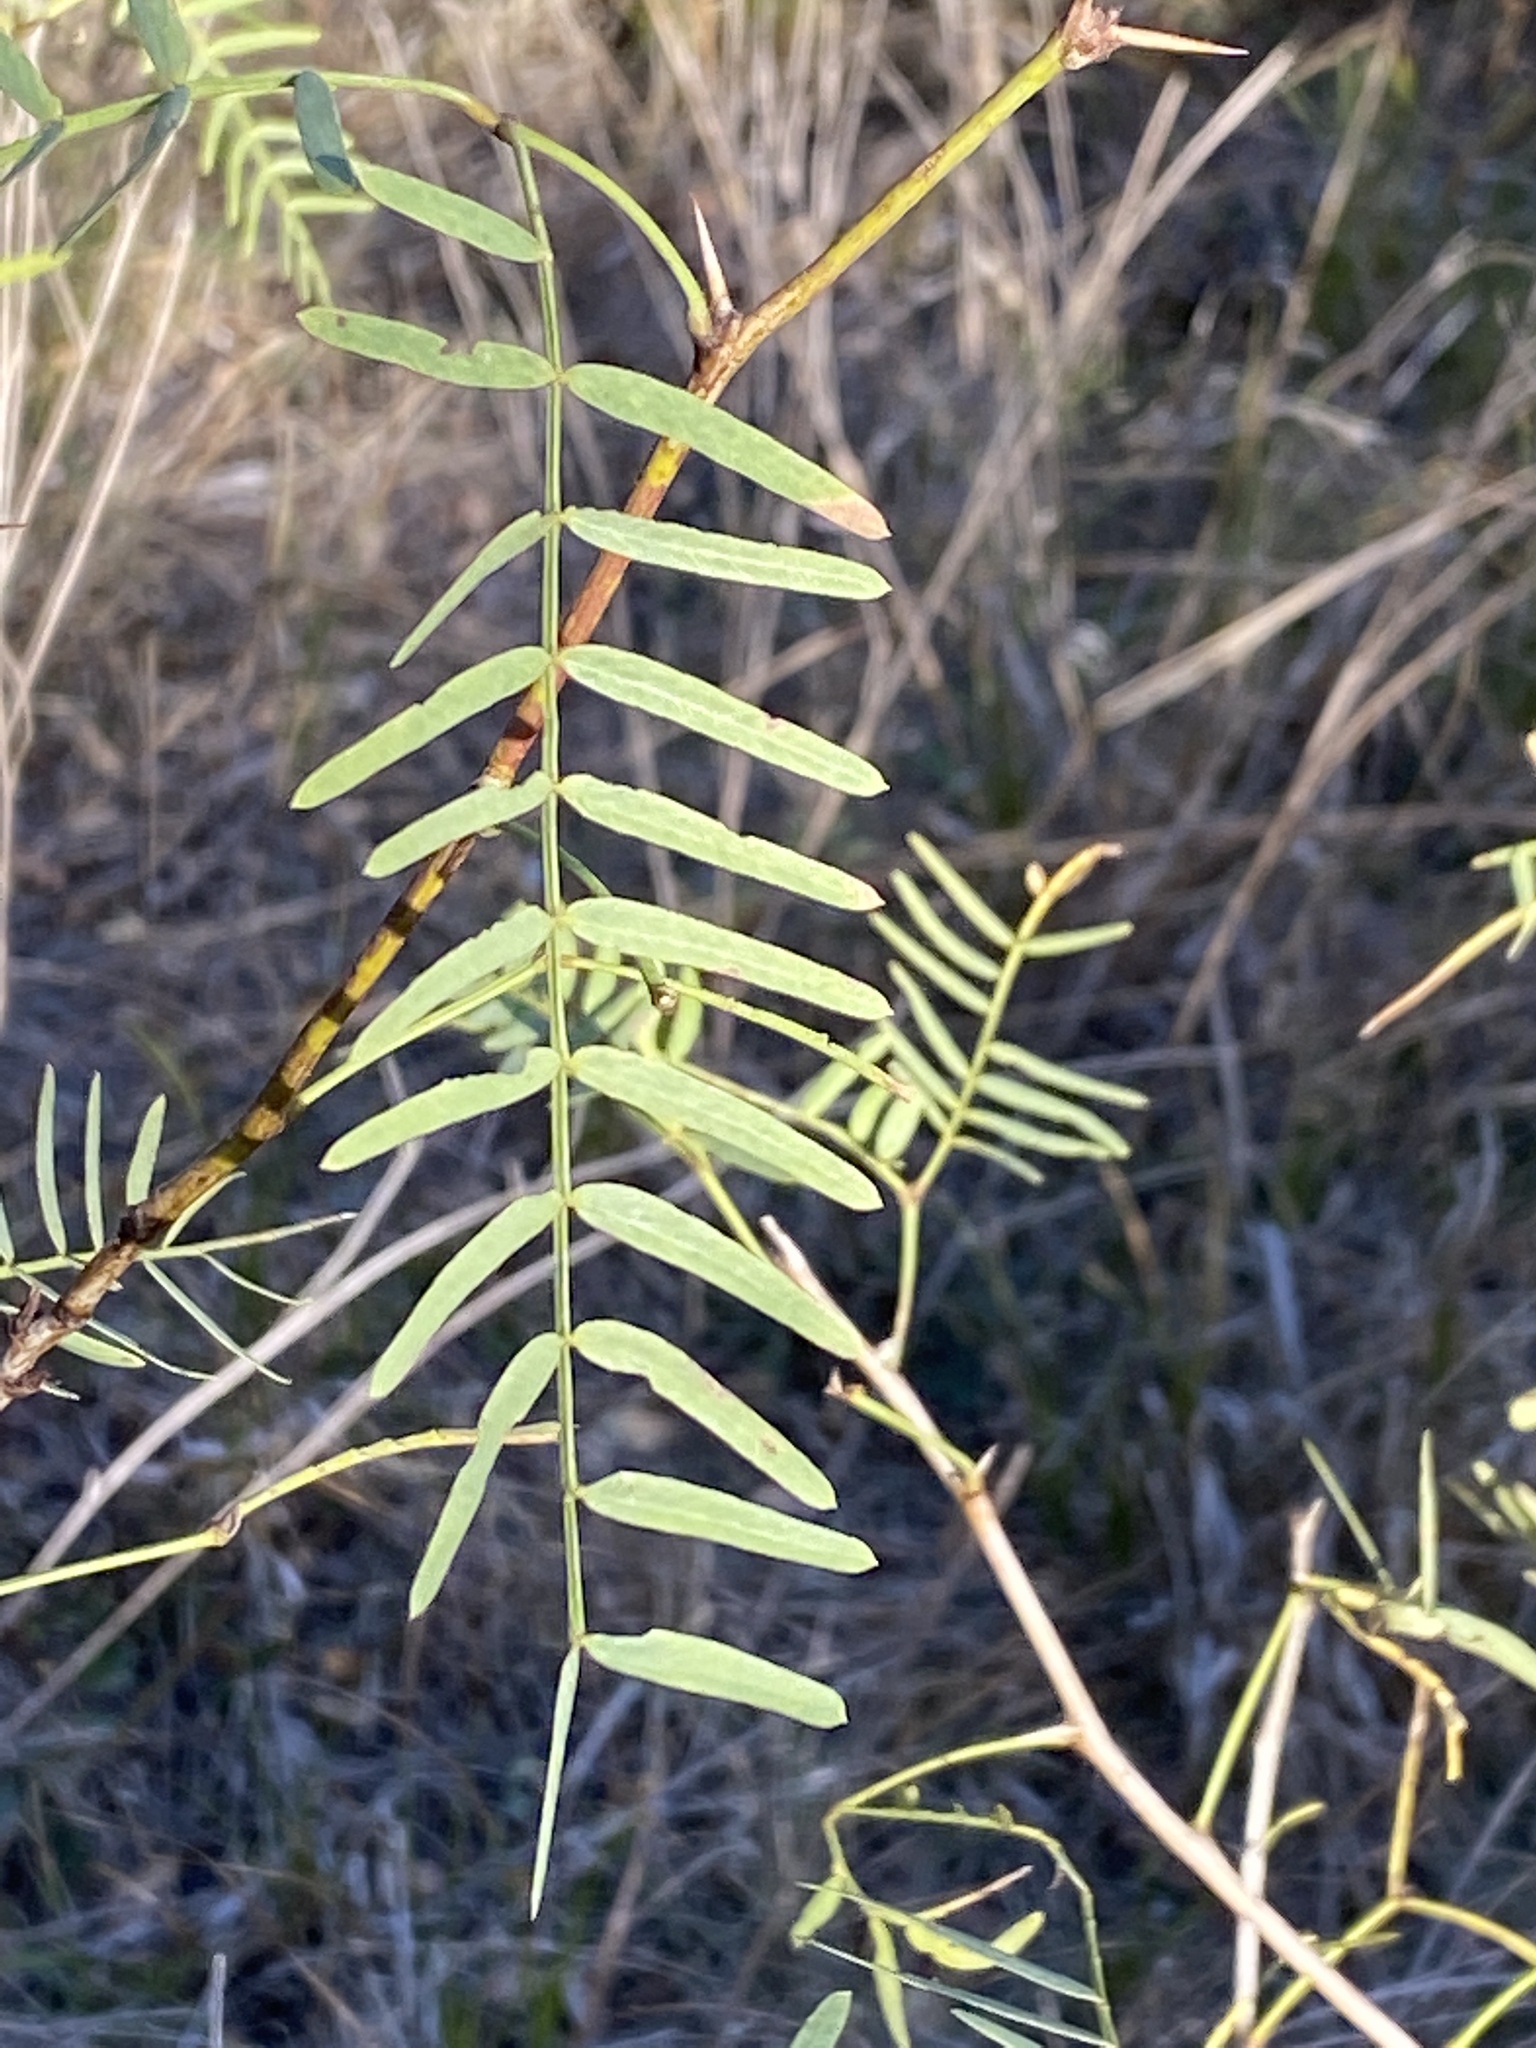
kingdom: Plantae
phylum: Tracheophyta
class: Magnoliopsida
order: Fabales
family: Fabaceae
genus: Prosopis
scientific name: Prosopis glandulosa
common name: Honey mesquite
